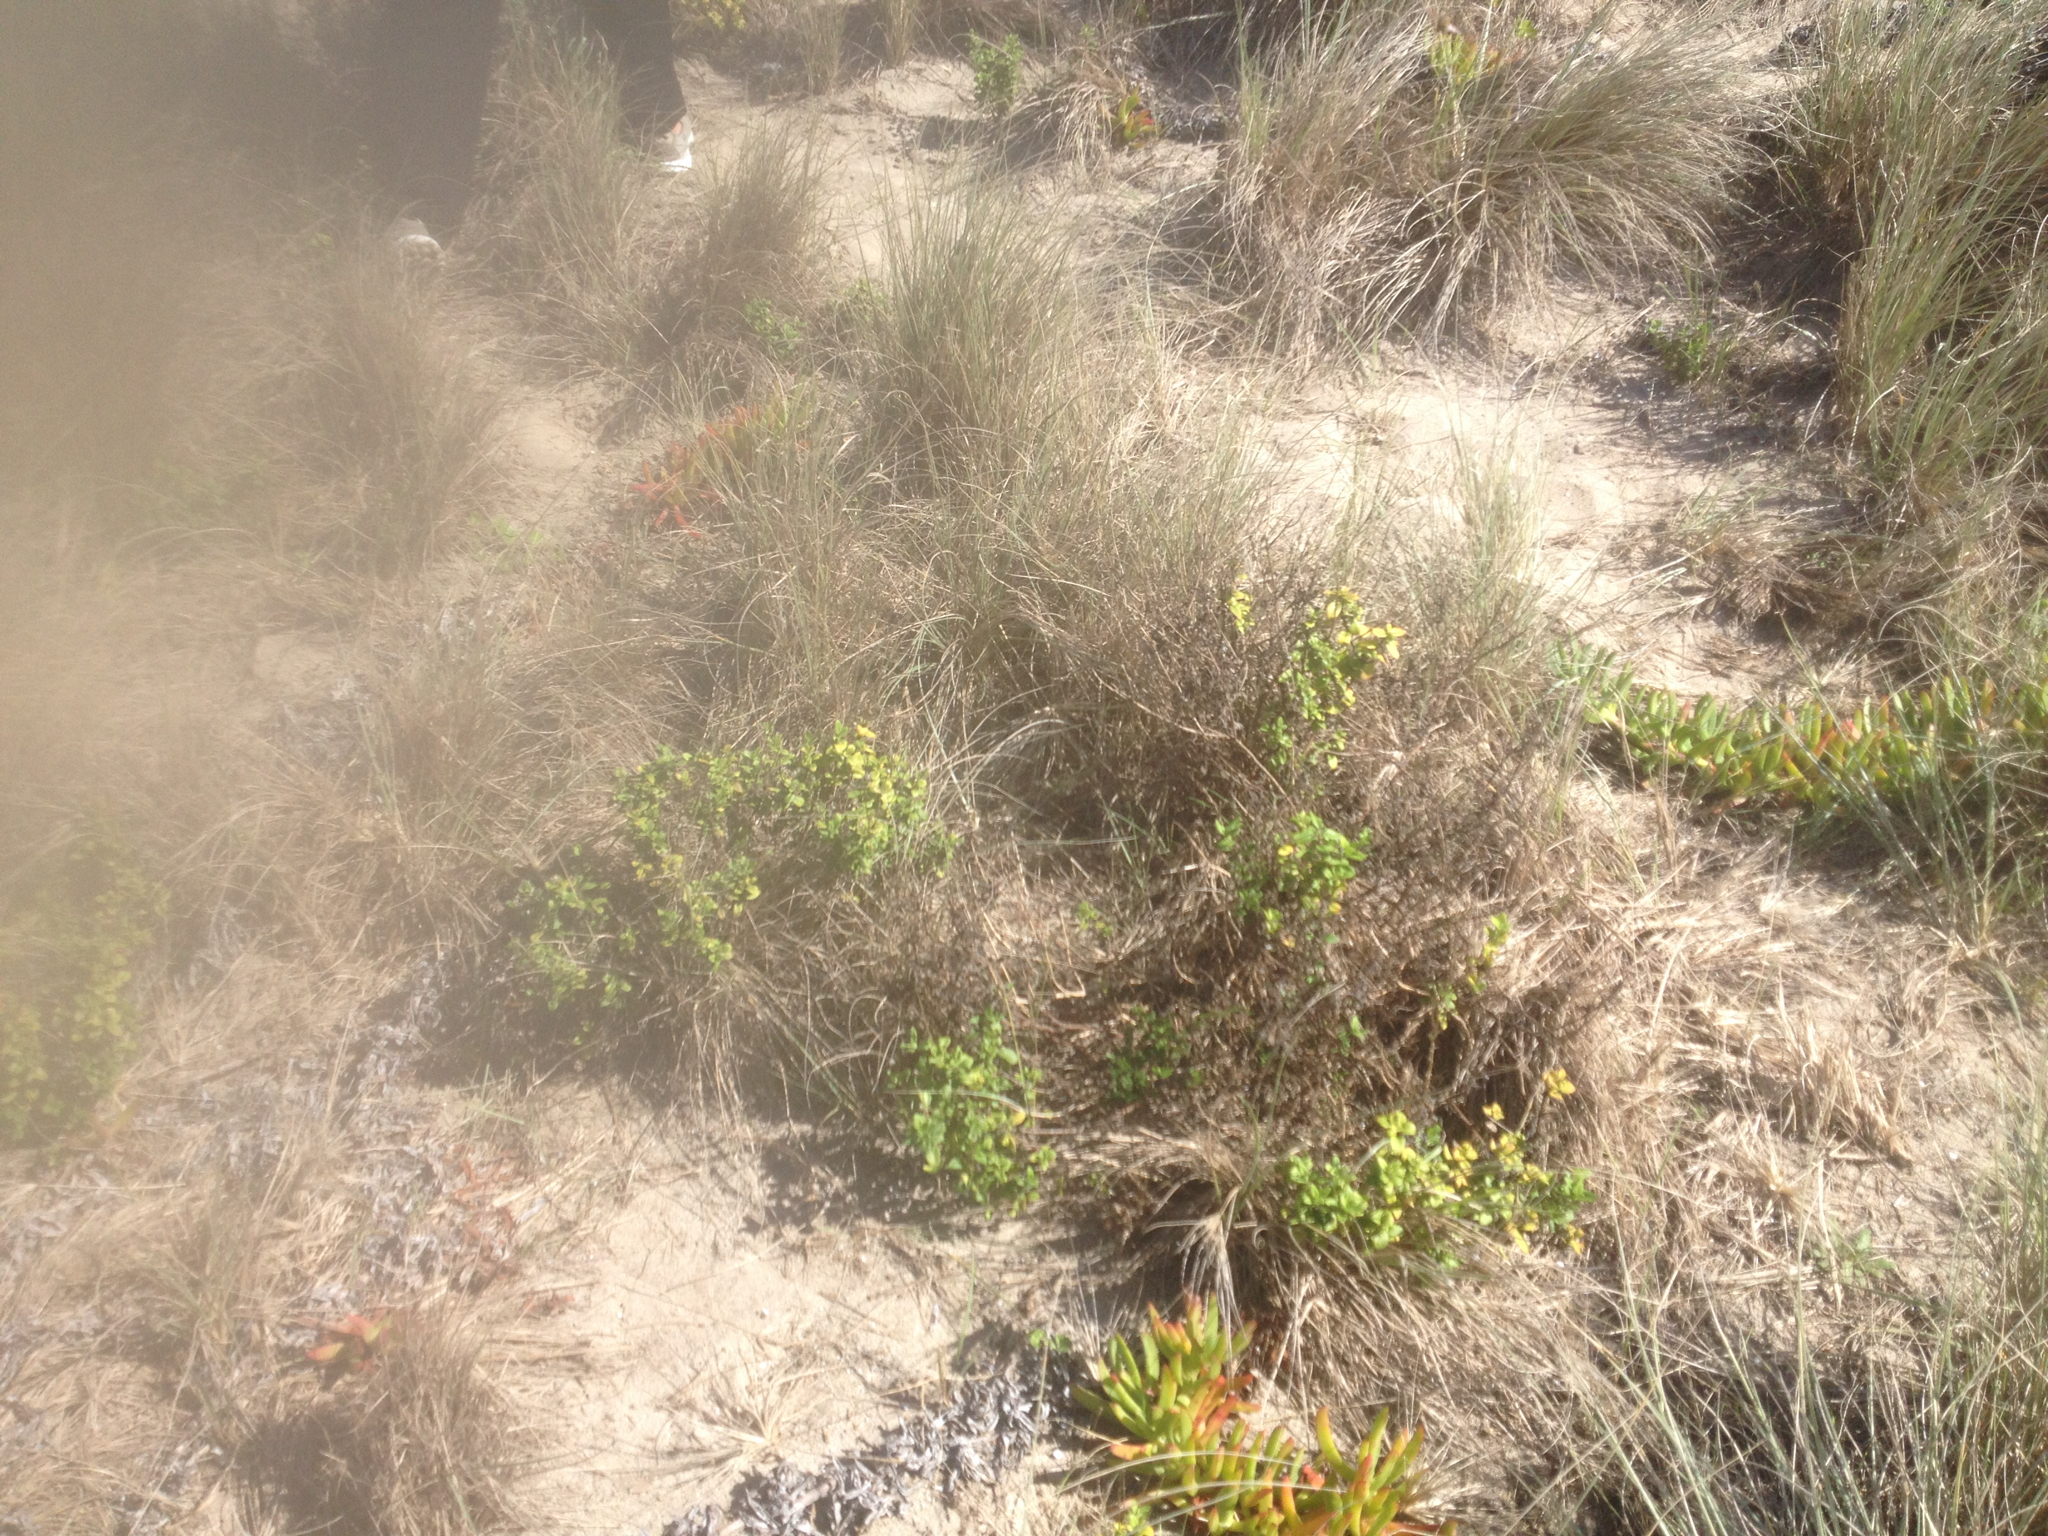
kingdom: Plantae
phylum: Tracheophyta
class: Magnoliopsida
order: Asterales
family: Asteraceae
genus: Felicia
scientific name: Felicia amelloides
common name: Blue marguerite
